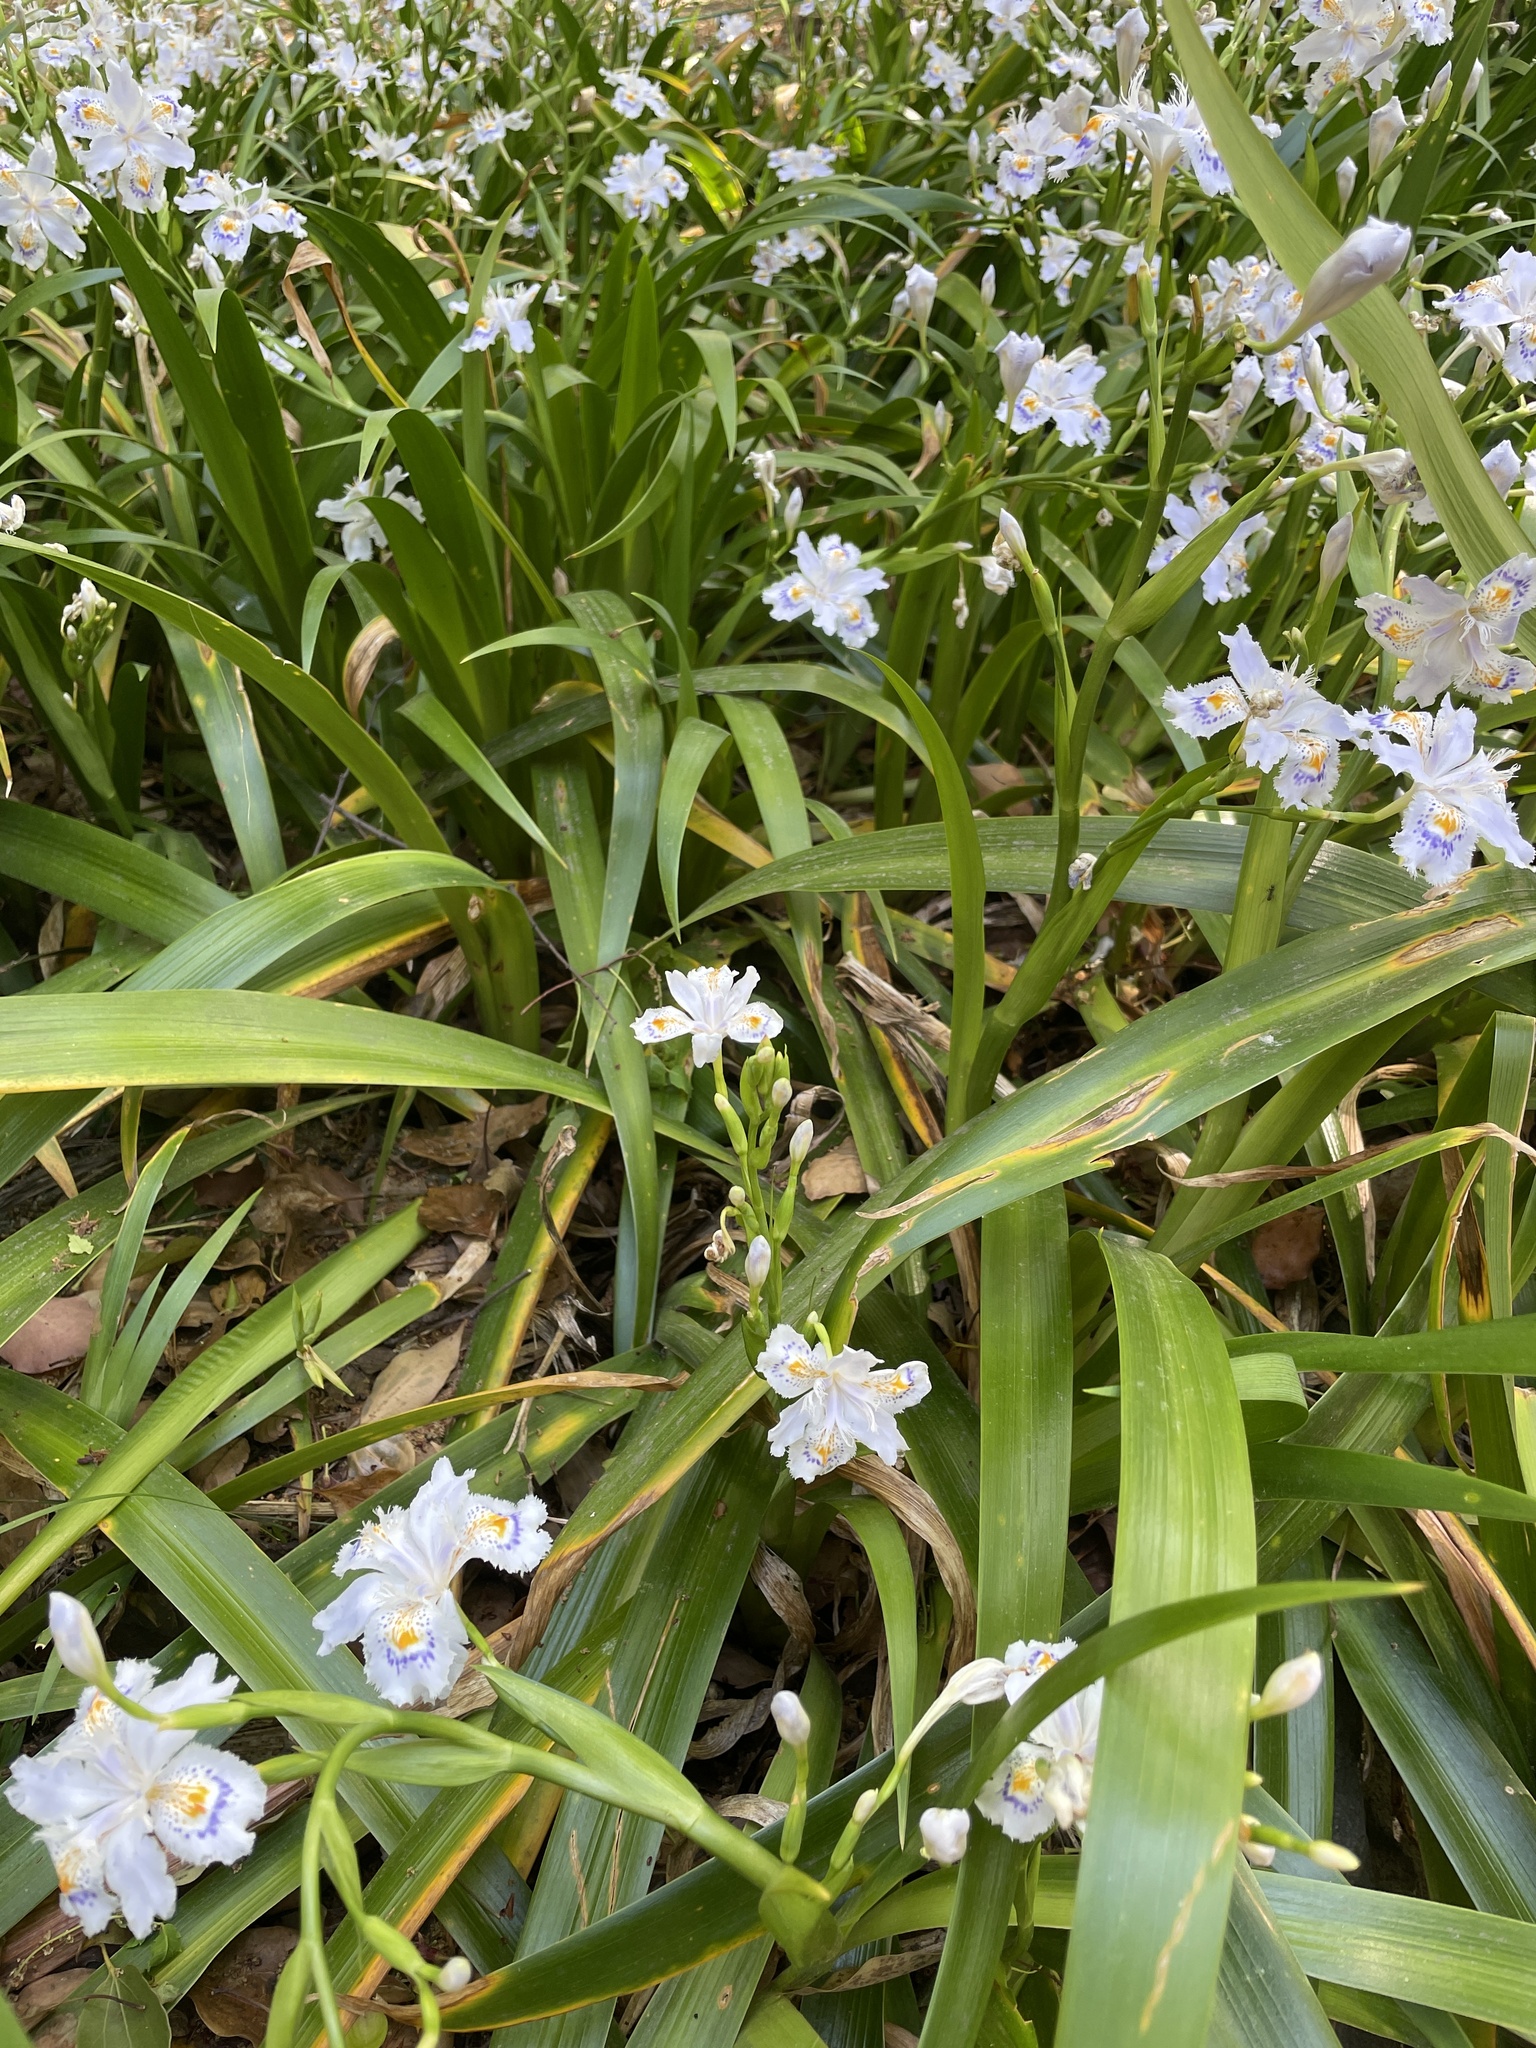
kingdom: Plantae
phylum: Tracheophyta
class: Liliopsida
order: Asparagales
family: Iridaceae
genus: Iris
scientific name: Iris japonica
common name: Butterfly-flower
